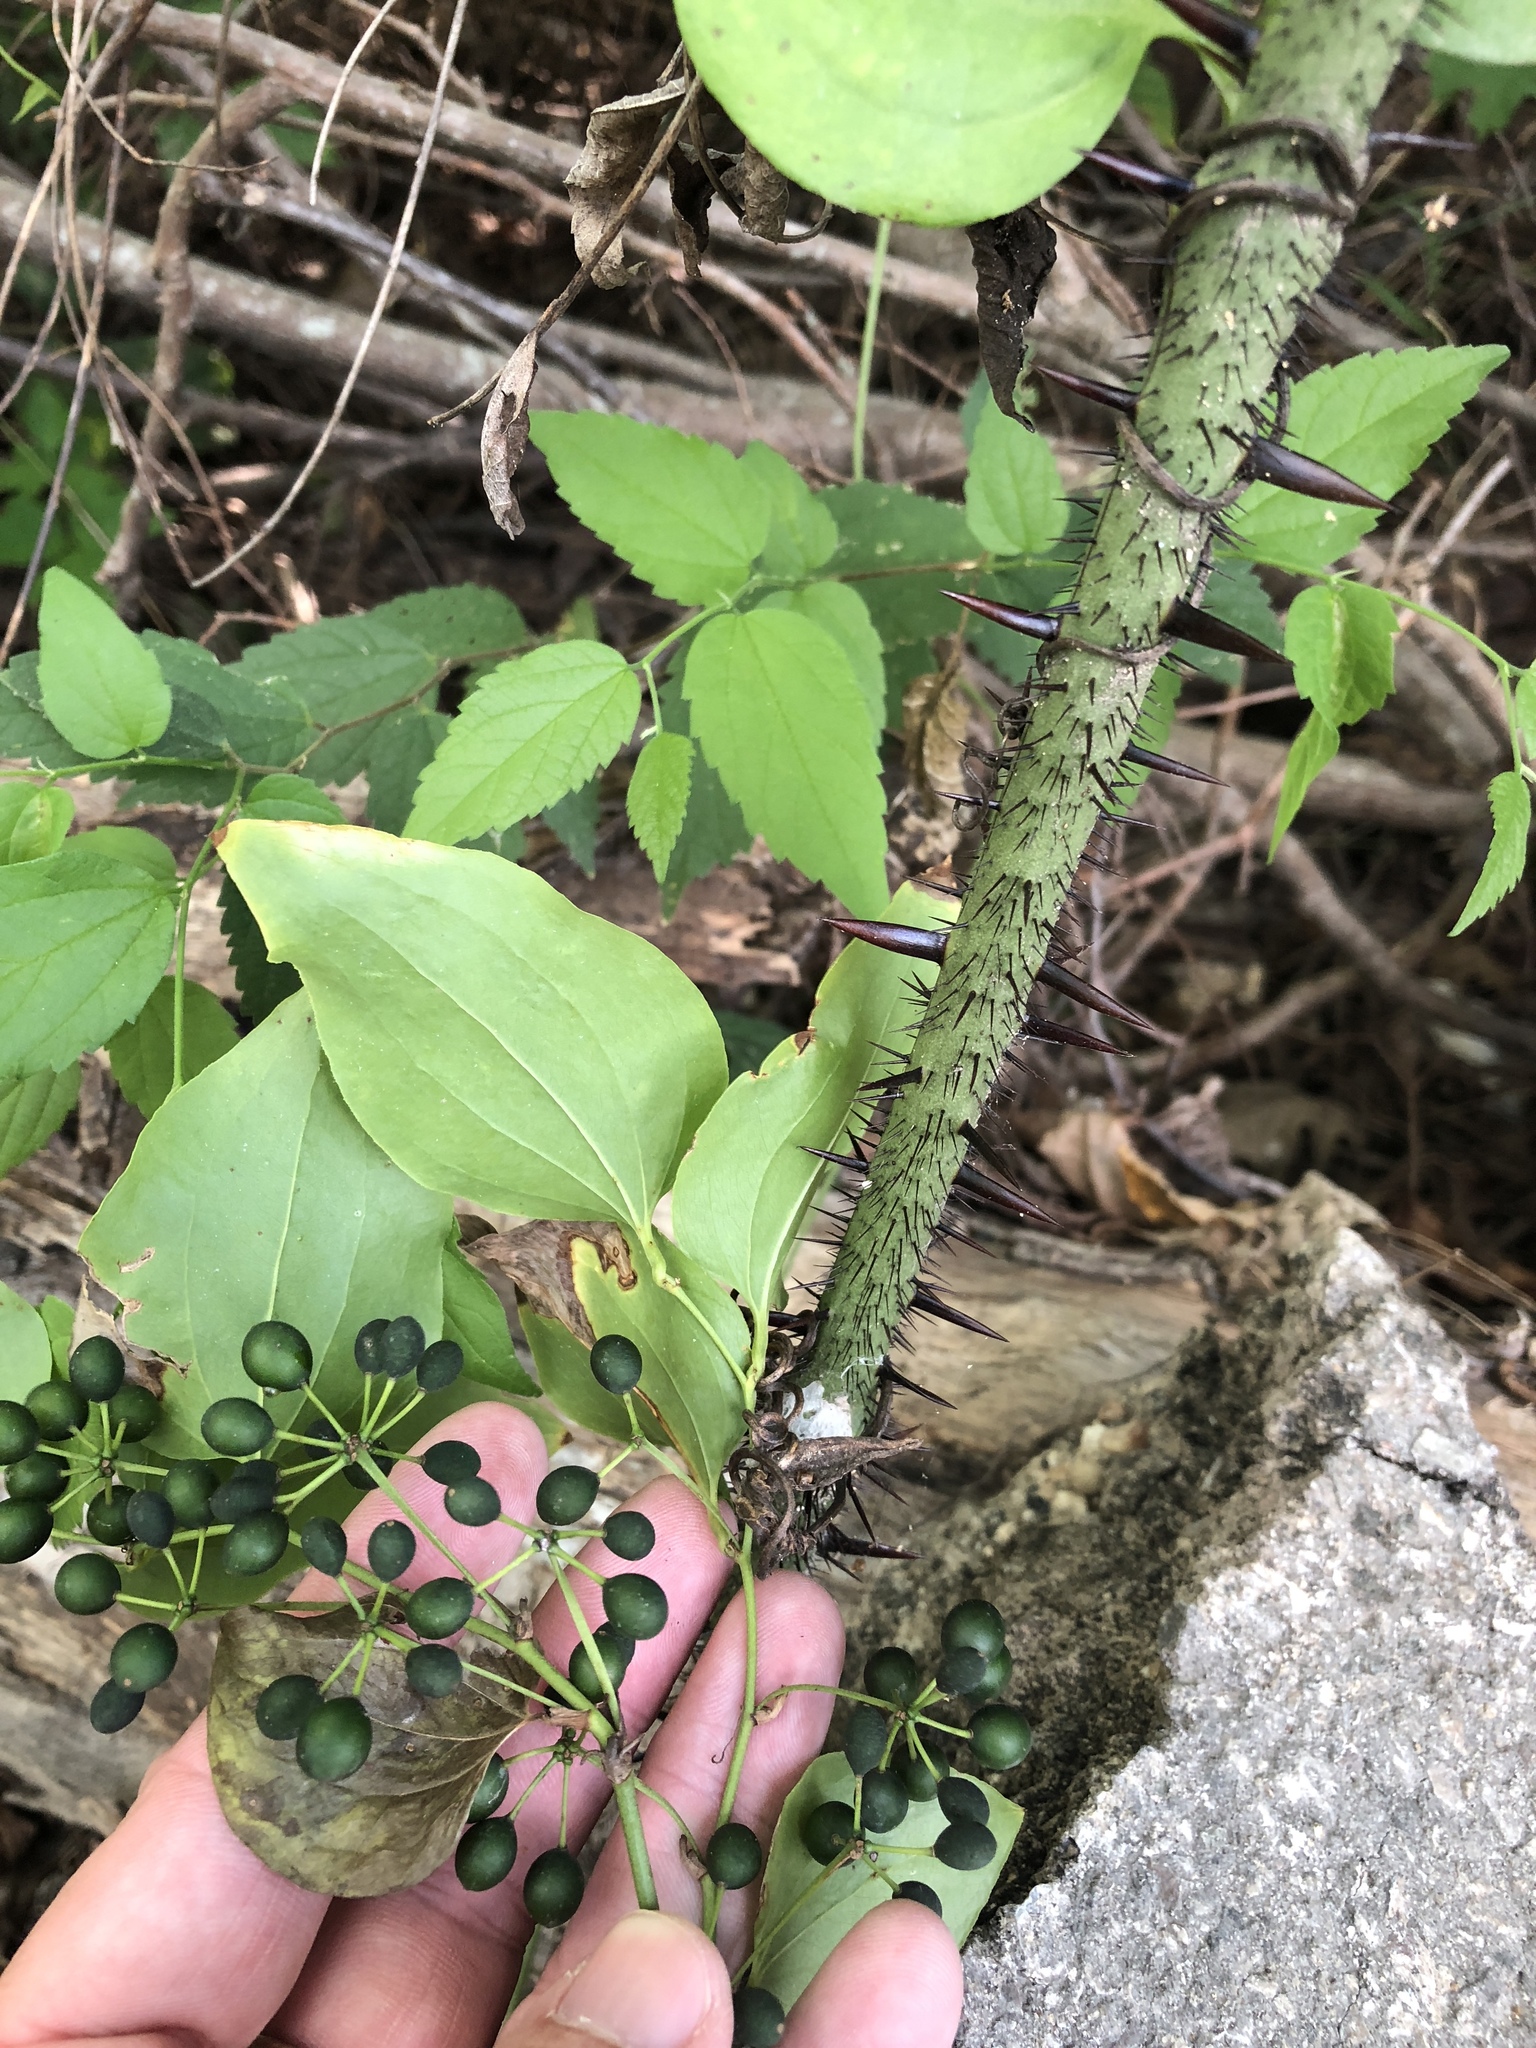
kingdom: Plantae
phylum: Tracheophyta
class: Liliopsida
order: Liliales
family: Smilacaceae
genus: Smilax
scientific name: Smilax tamnoides
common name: Hellfetter
